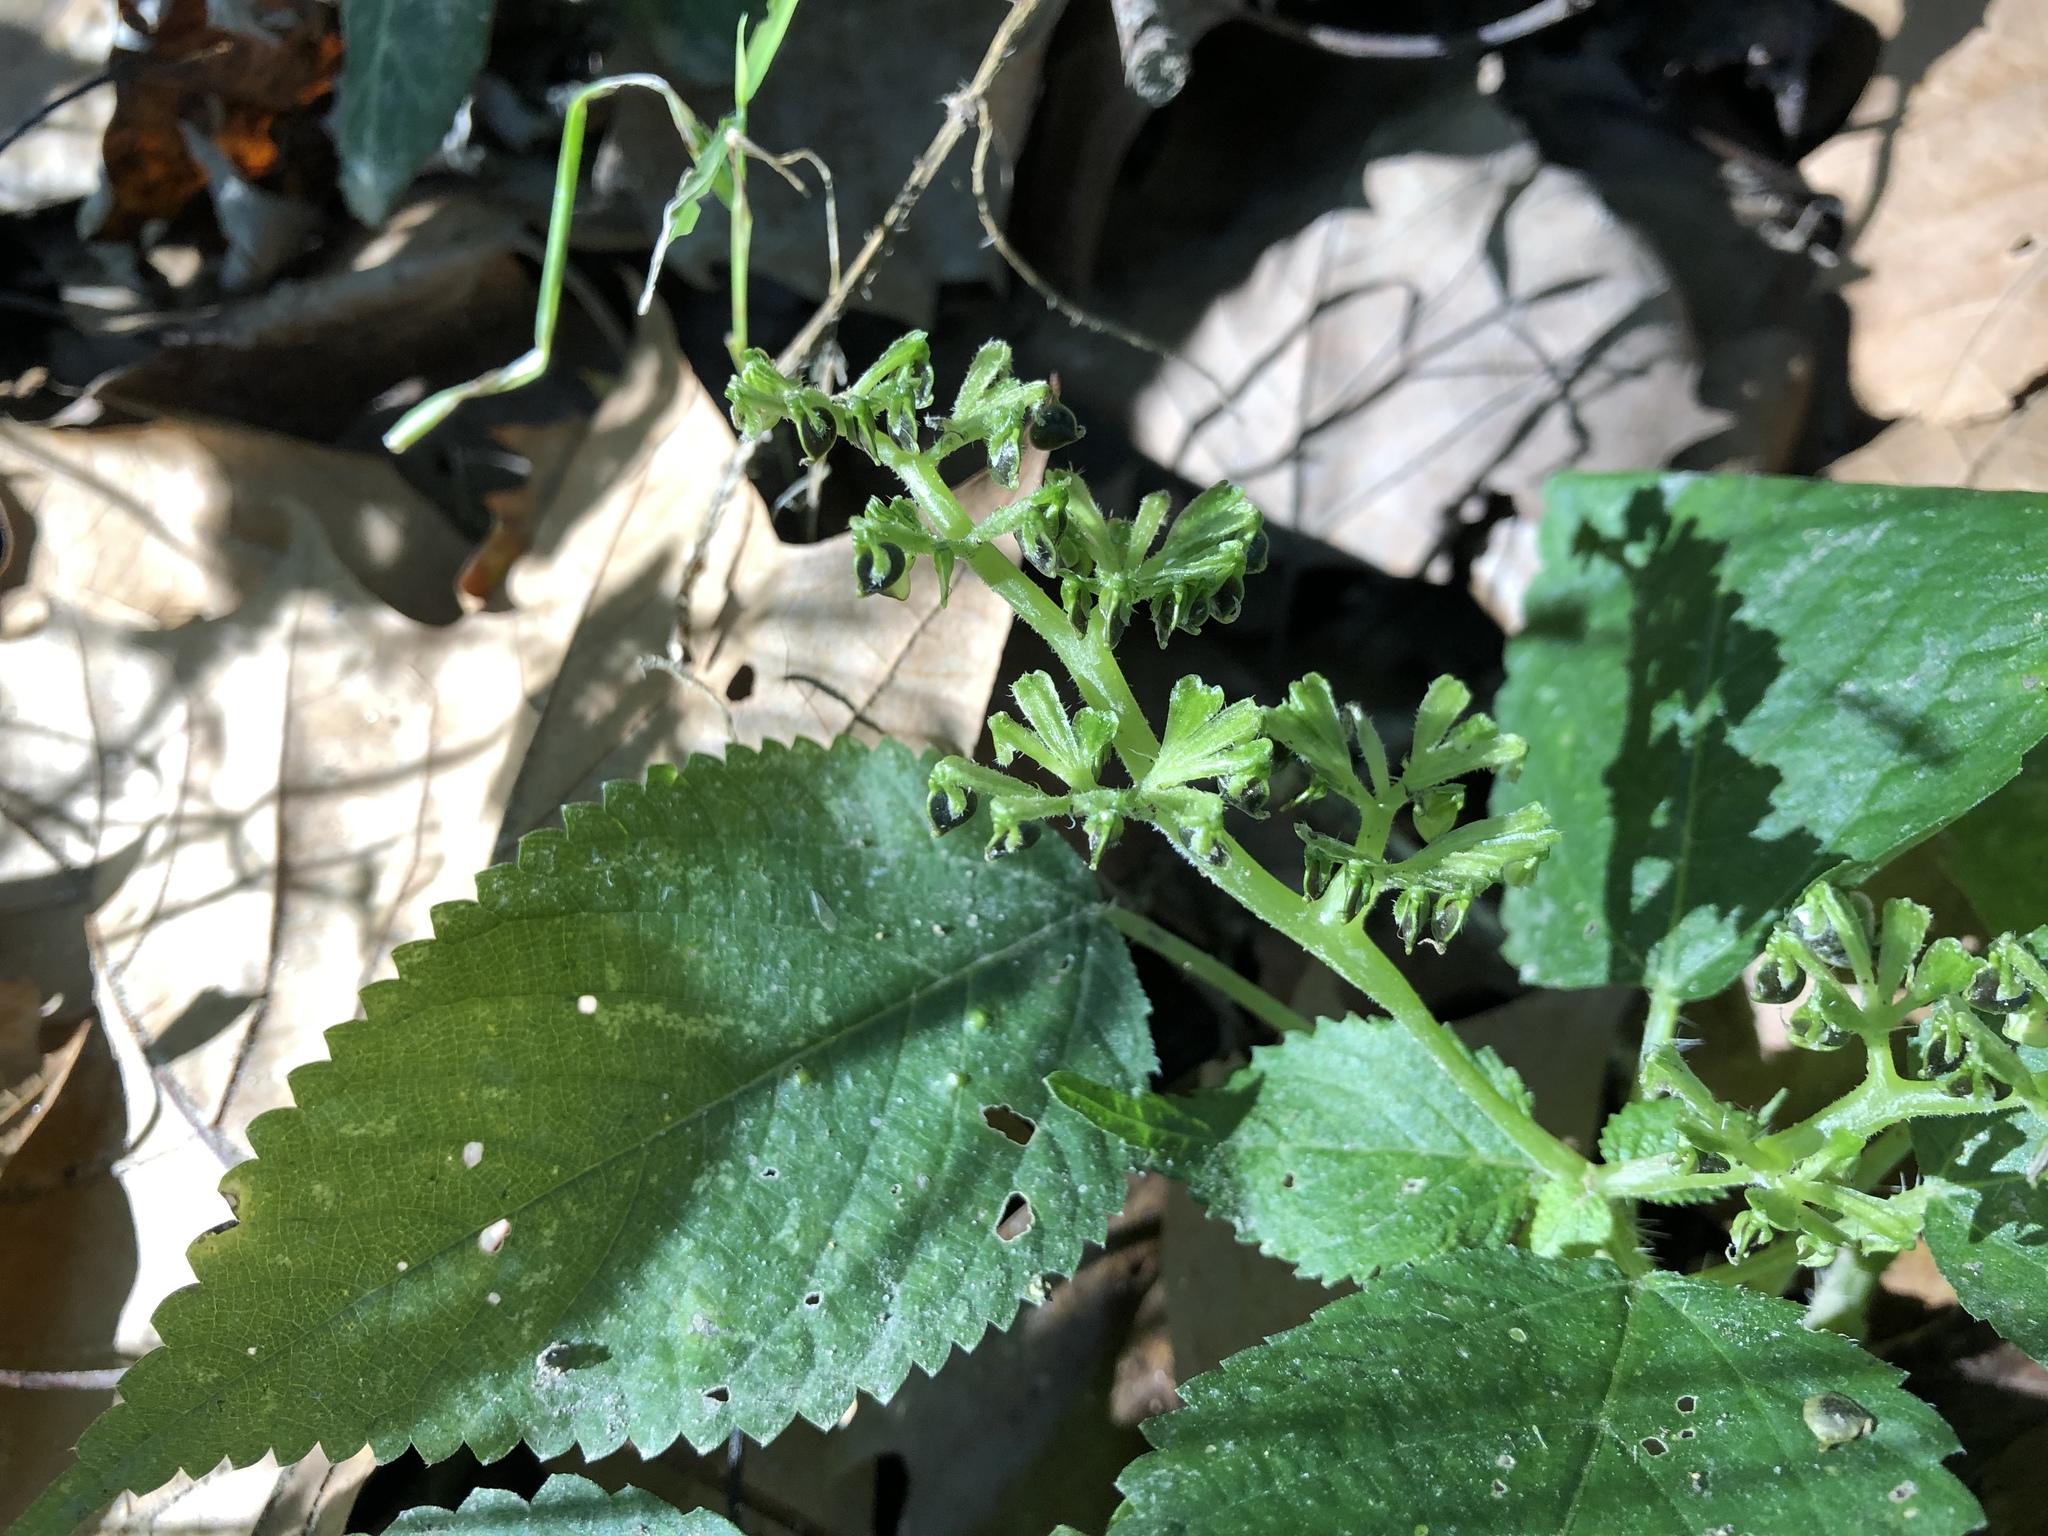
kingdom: Plantae
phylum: Tracheophyta
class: Magnoliopsida
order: Rosales
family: Urticaceae
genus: Laportea
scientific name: Laportea canadensis
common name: Canada nettle
